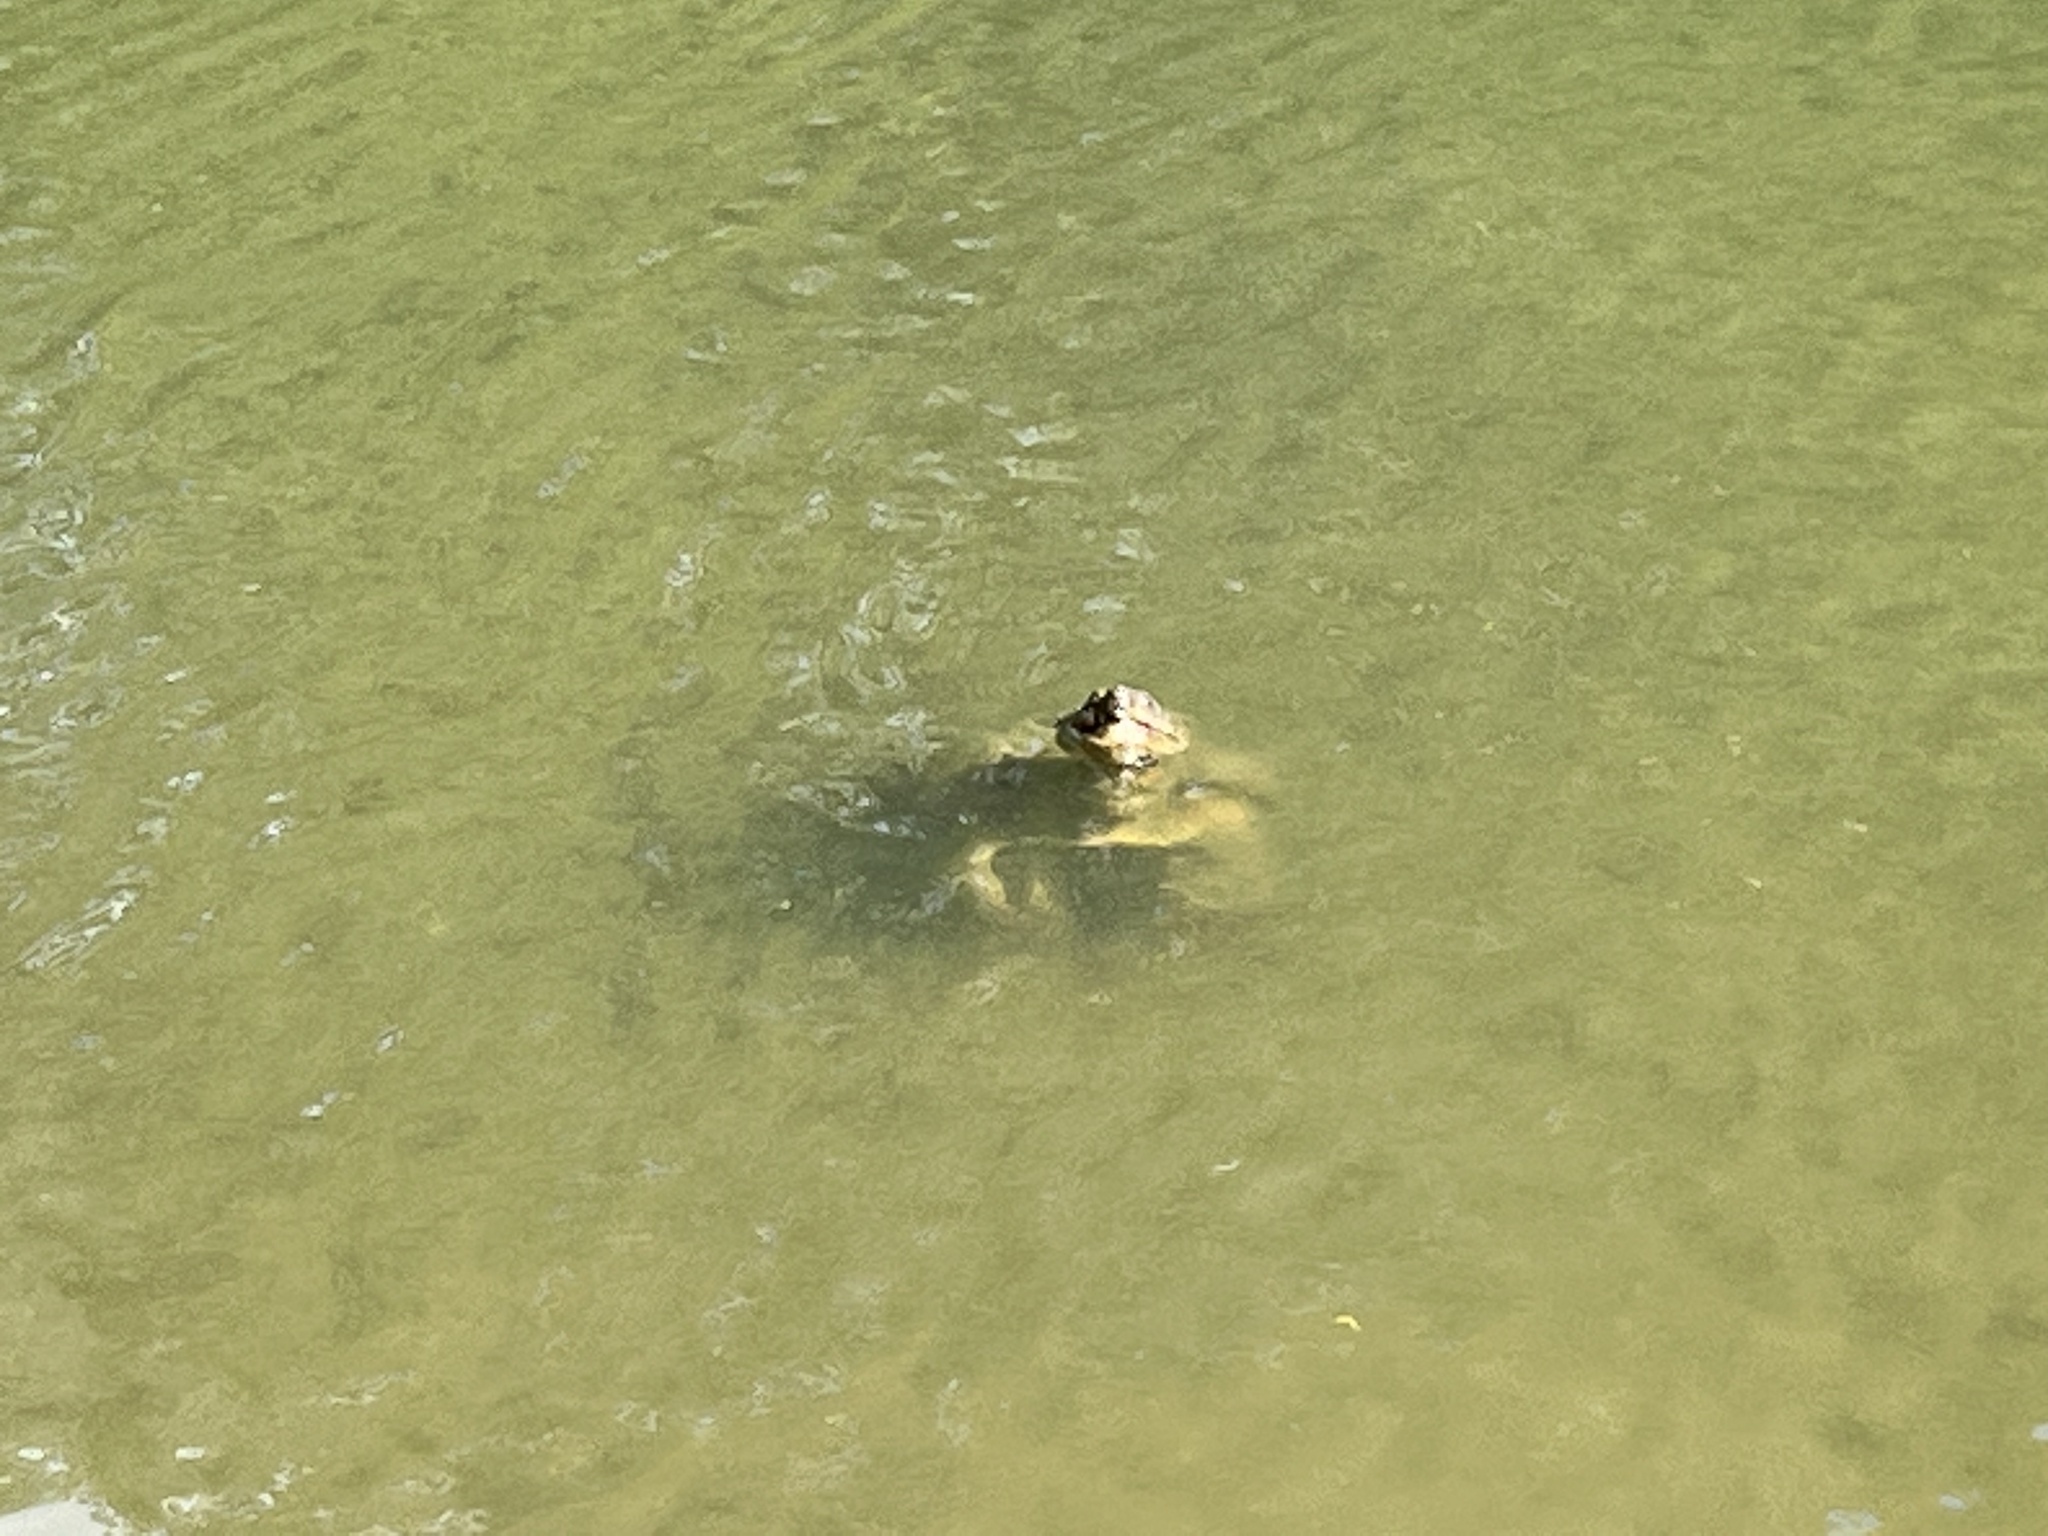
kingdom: Animalia
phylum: Chordata
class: Testudines
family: Chelydridae
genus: Chelydra
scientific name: Chelydra serpentina
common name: Common snapping turtle
